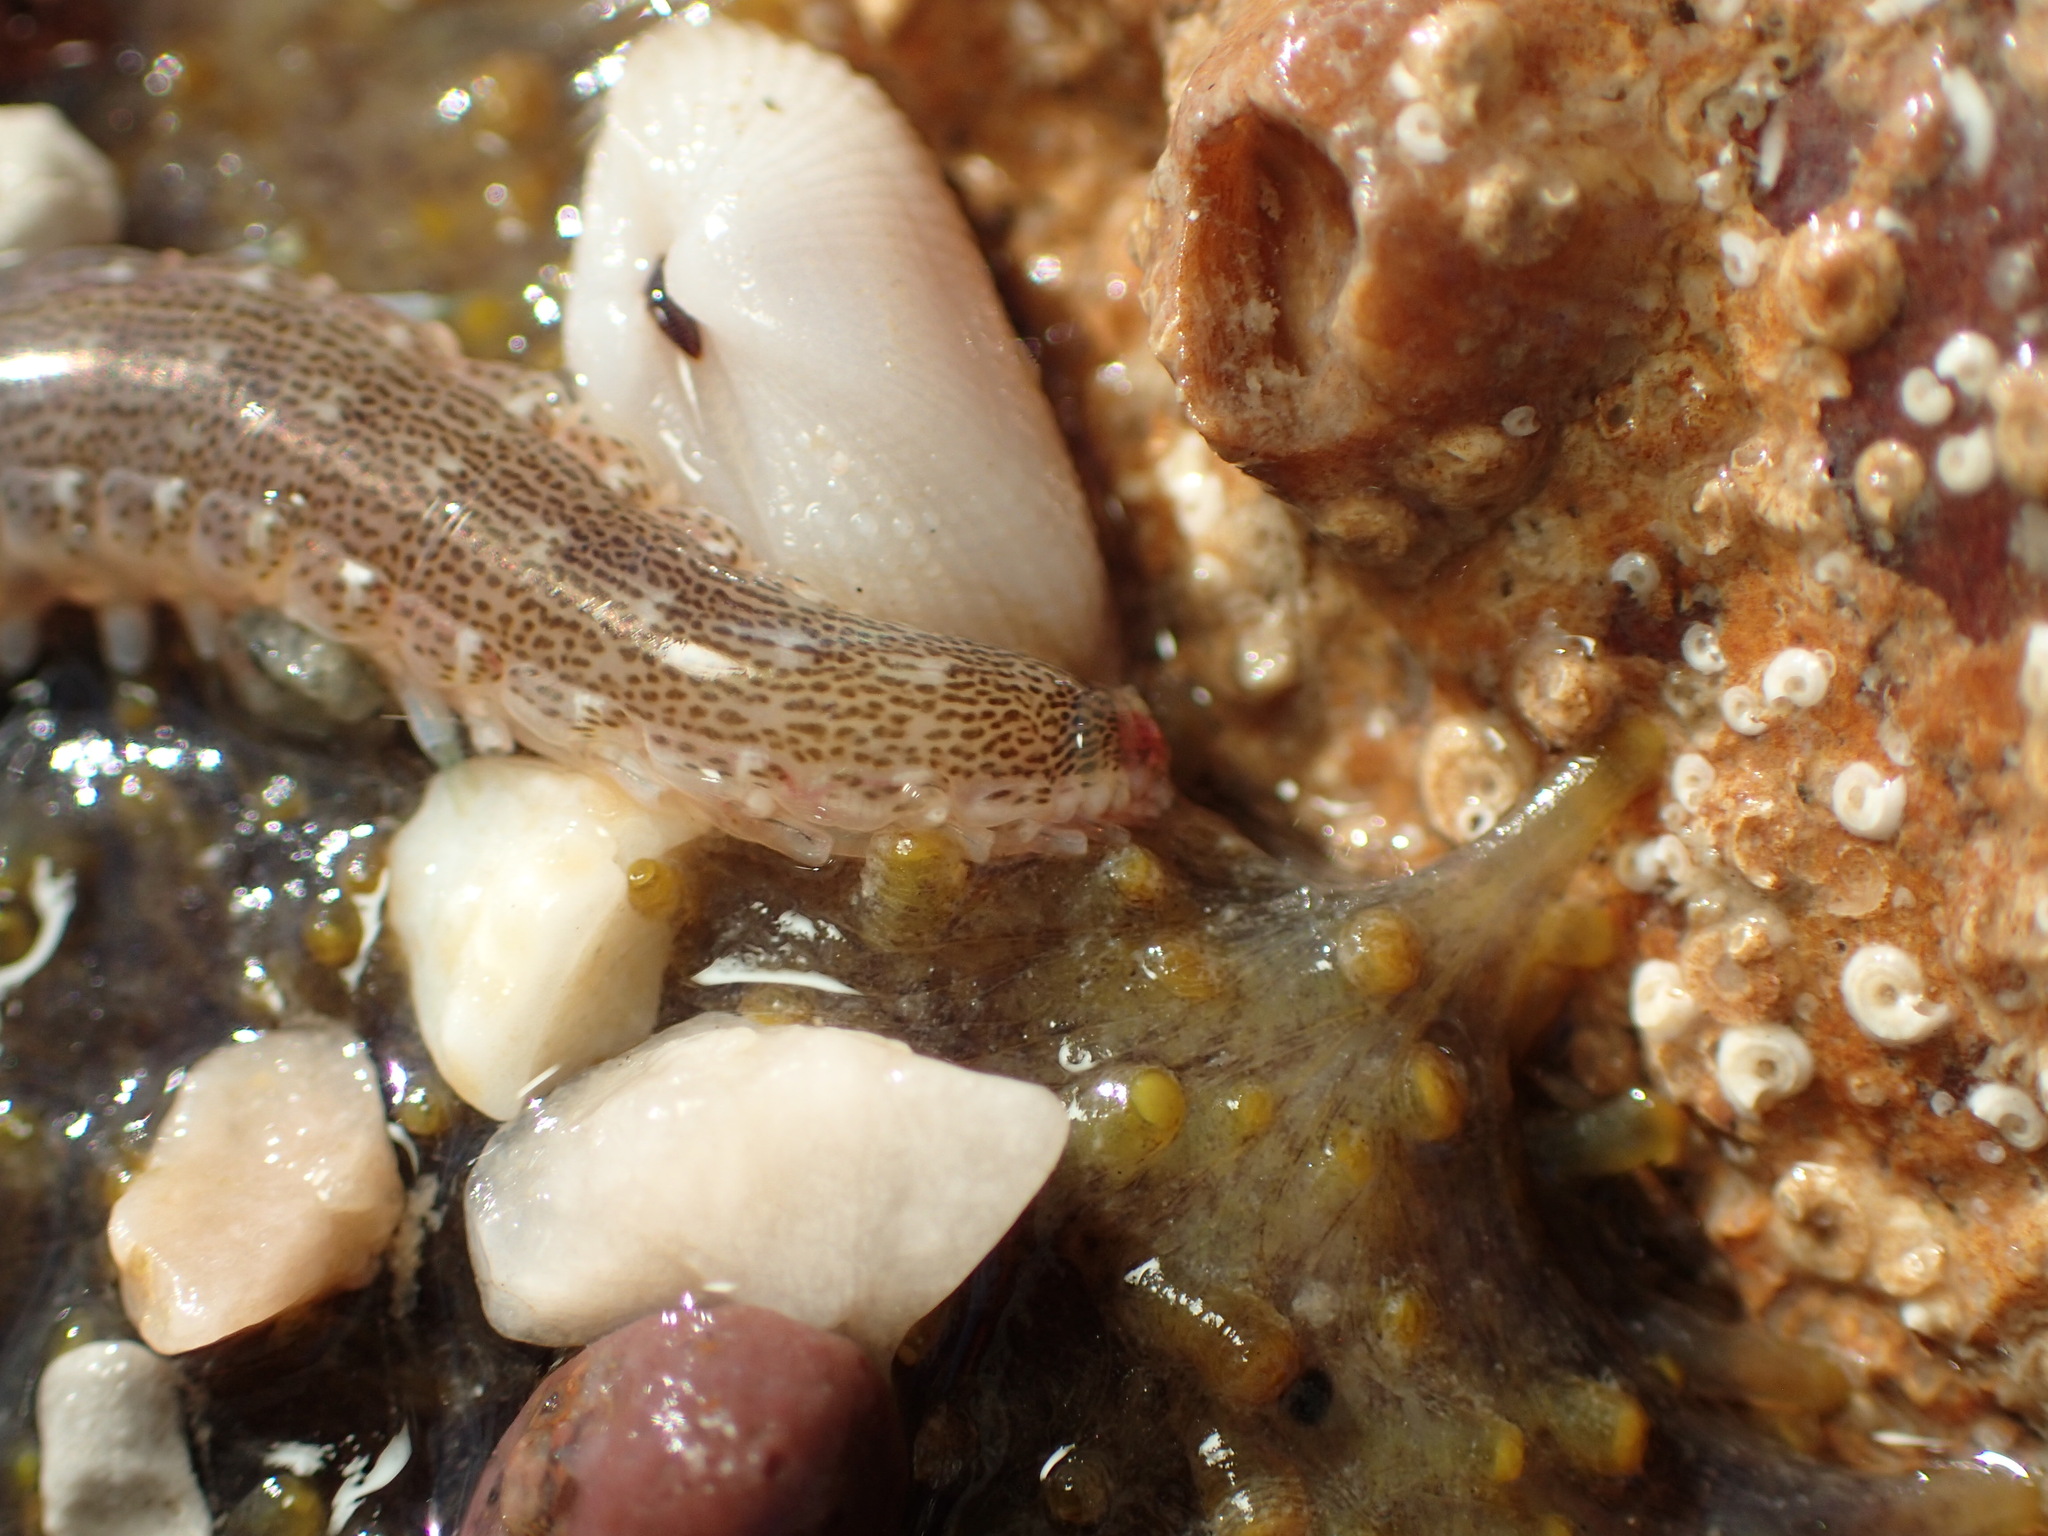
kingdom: Animalia
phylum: Annelida
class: Polychaeta
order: Phyllodocida
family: Hesionidae
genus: Hesione
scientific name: Hesione intertexta
